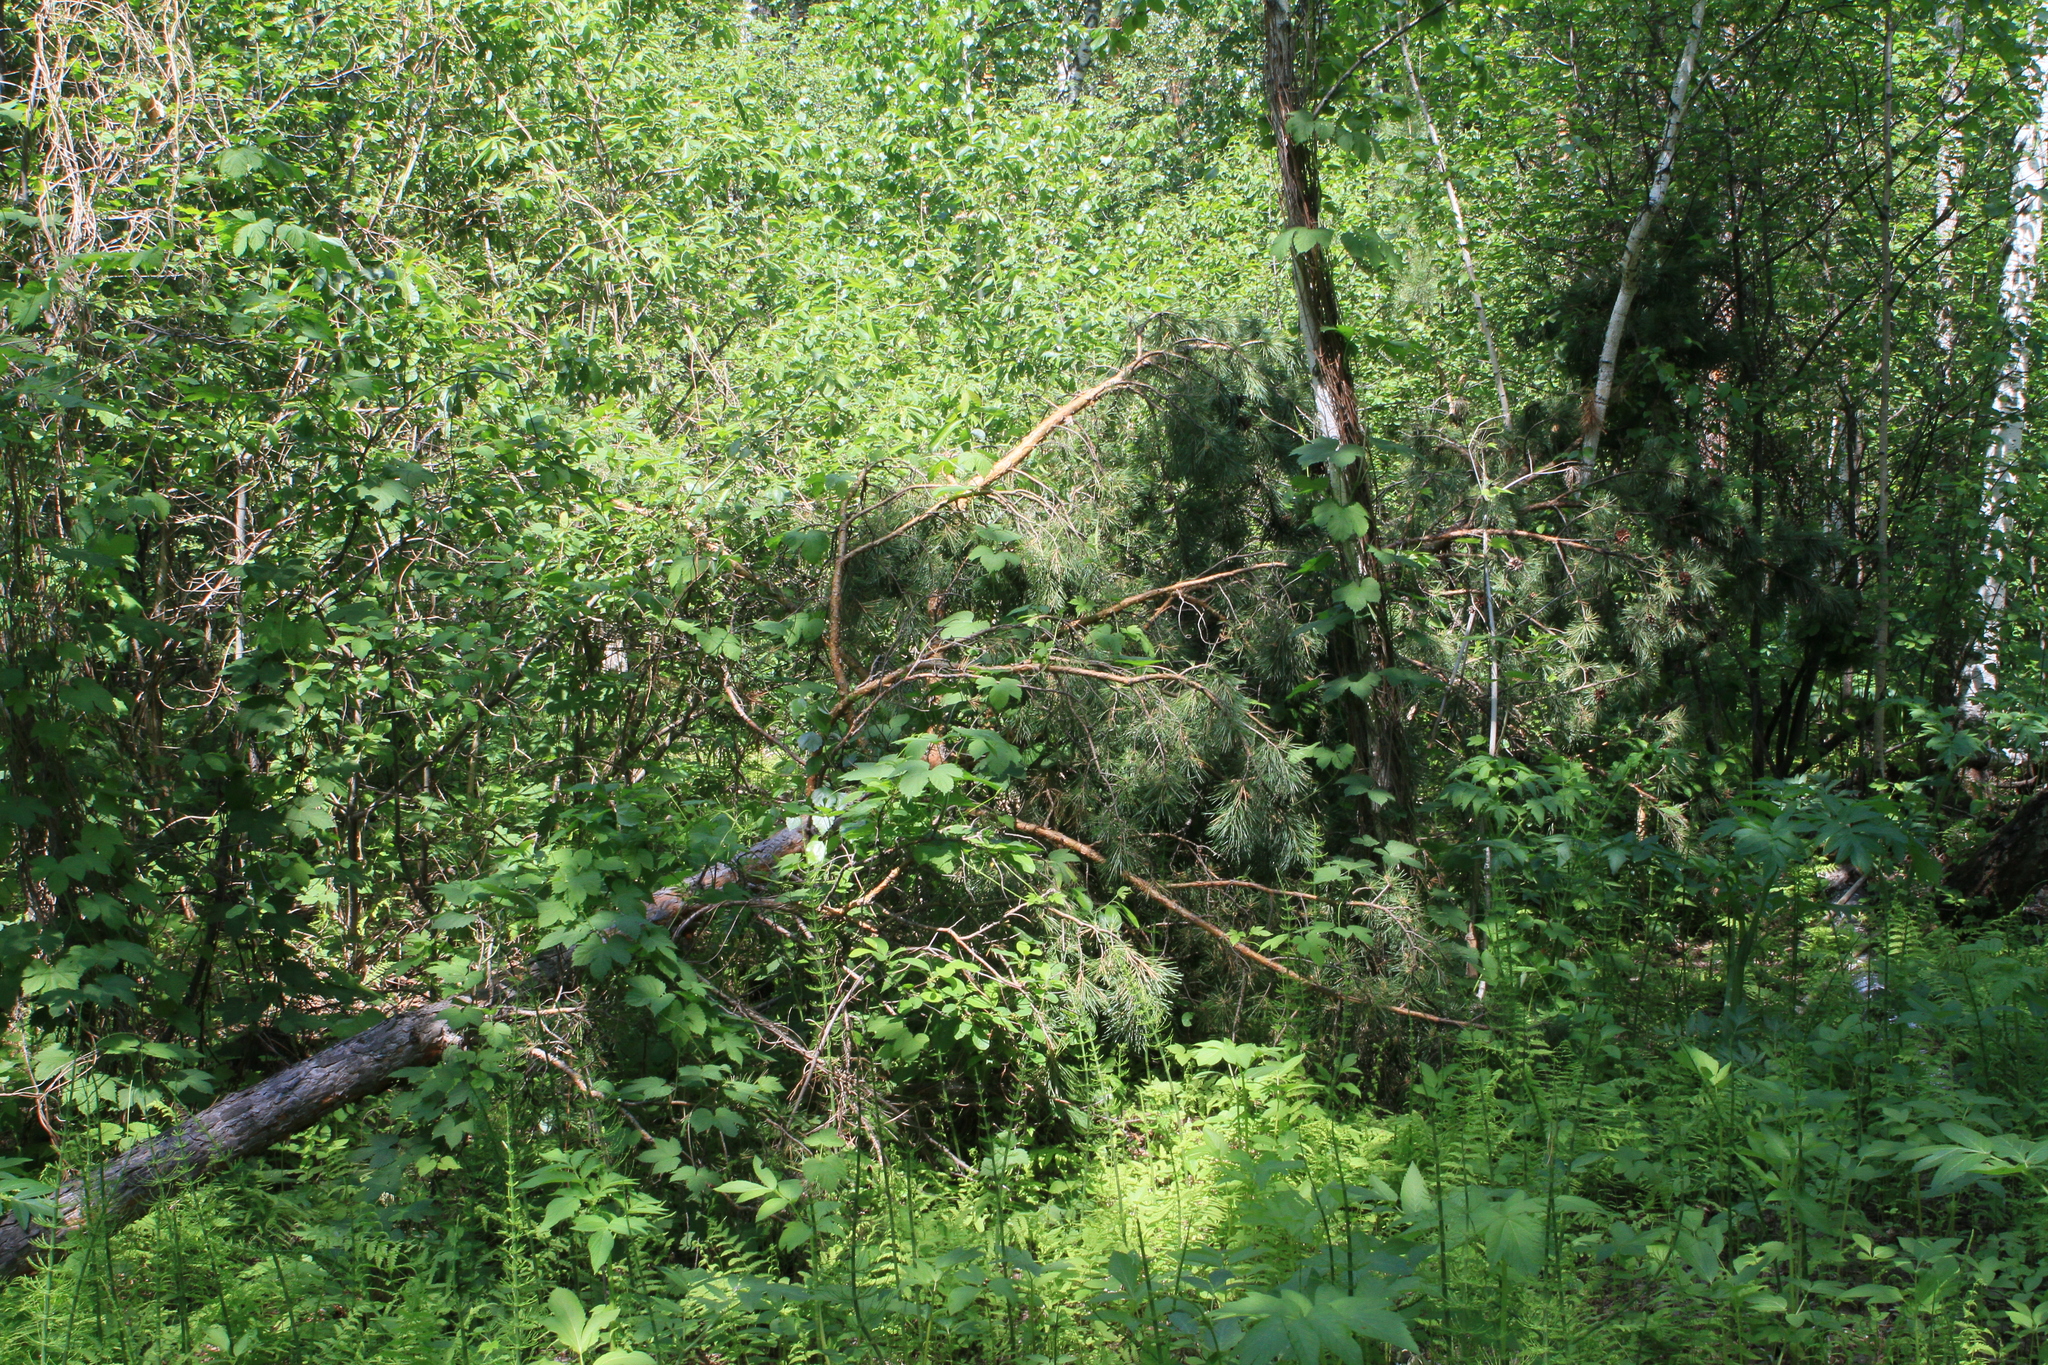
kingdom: Plantae
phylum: Tracheophyta
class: Pinopsida
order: Pinales
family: Pinaceae
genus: Pinus
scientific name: Pinus sylvestris
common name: Scots pine
